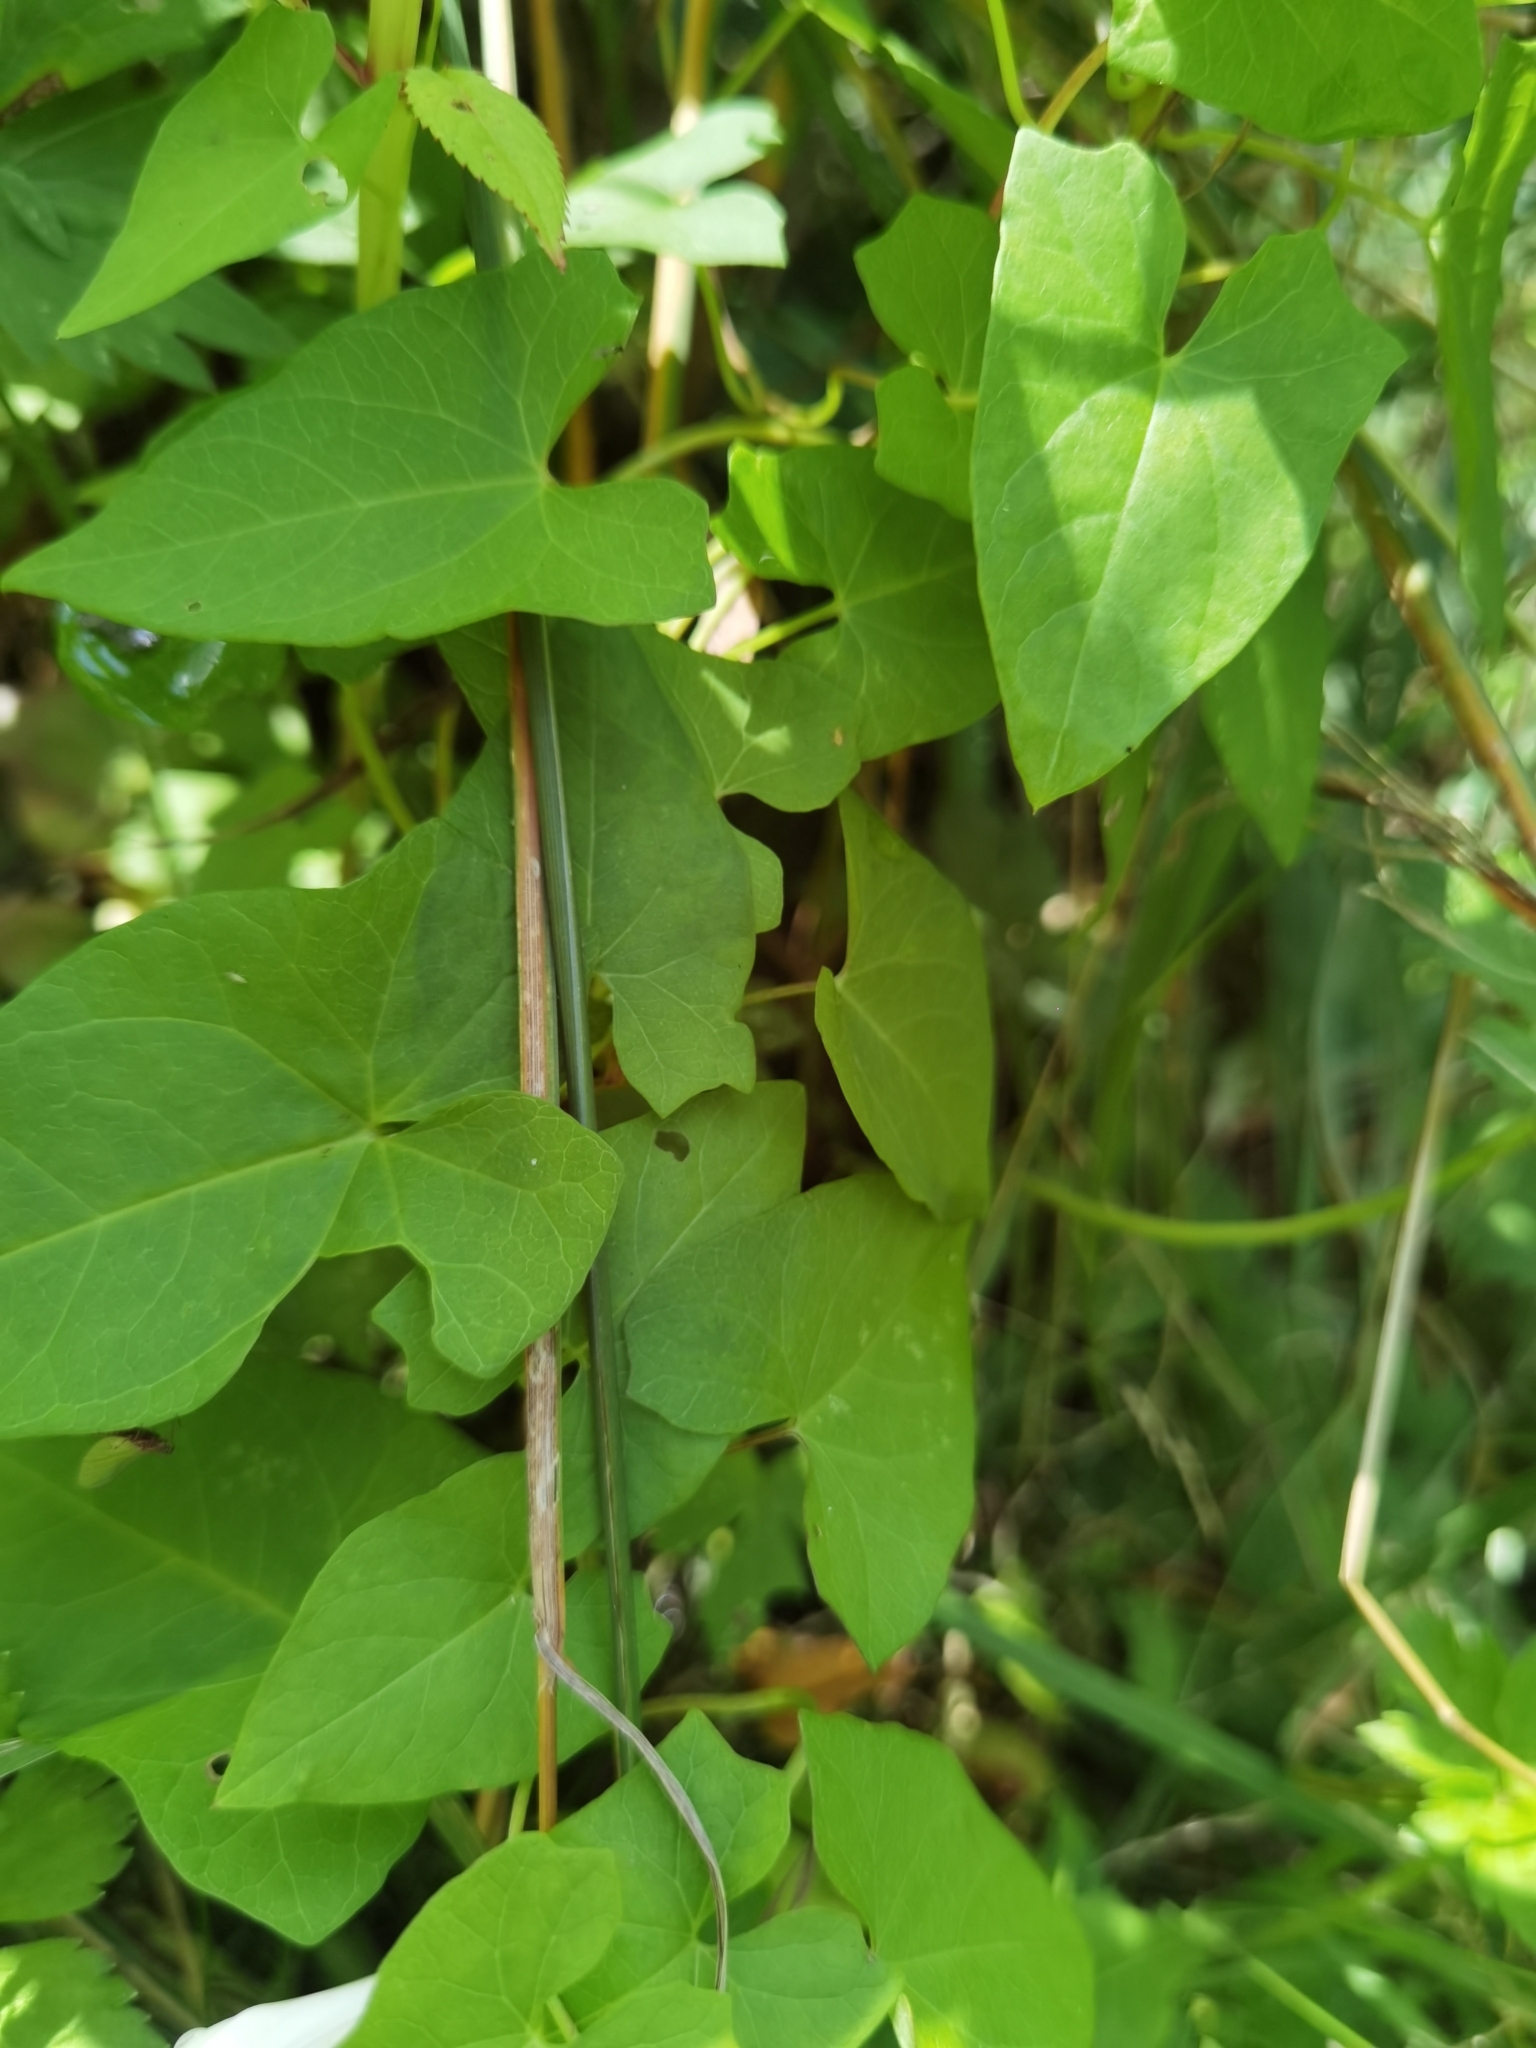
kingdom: Plantae
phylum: Tracheophyta
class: Magnoliopsida
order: Solanales
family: Convolvulaceae
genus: Calystegia
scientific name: Calystegia sepium
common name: Hedge bindweed
